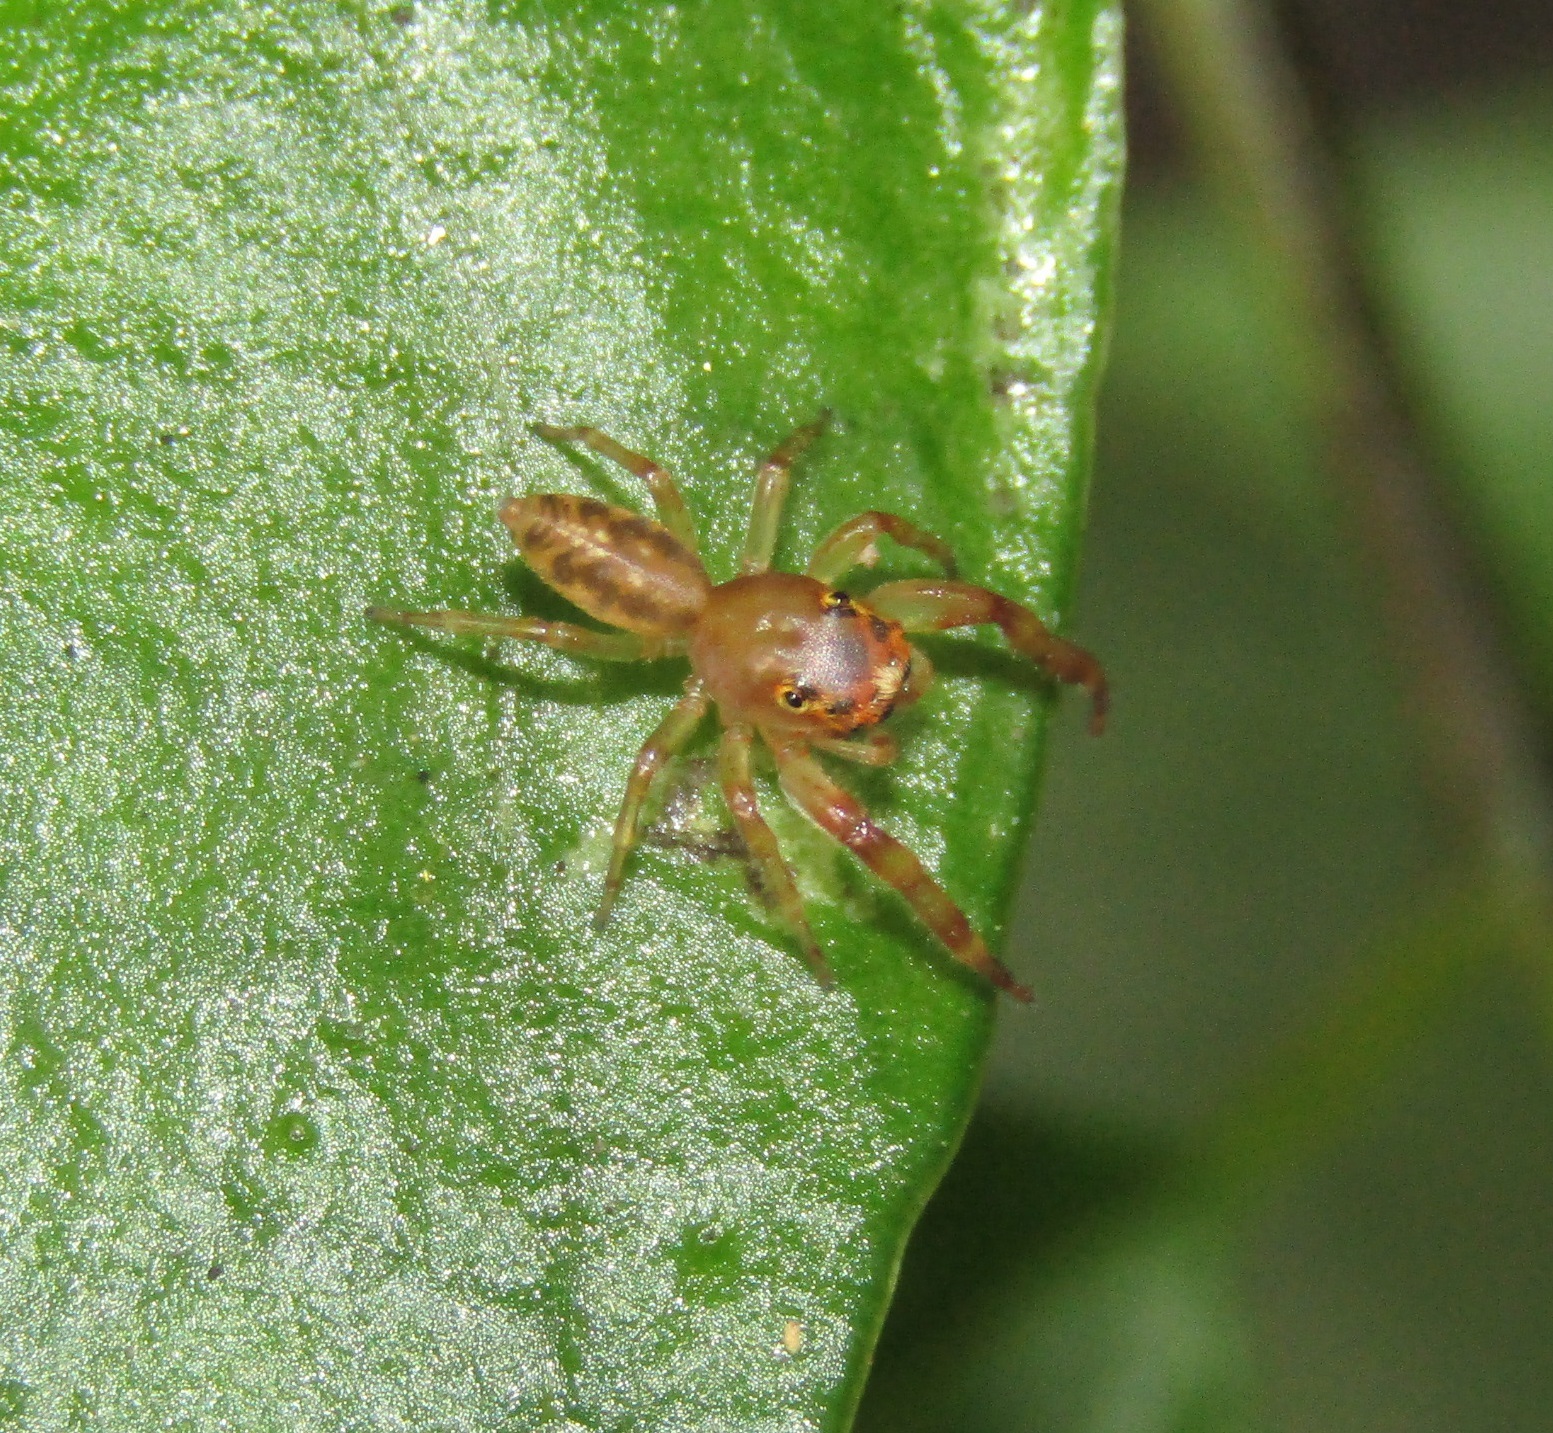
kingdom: Animalia
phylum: Arthropoda
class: Arachnida
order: Araneae
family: Salticidae
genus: Trite
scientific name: Trite mustilina
